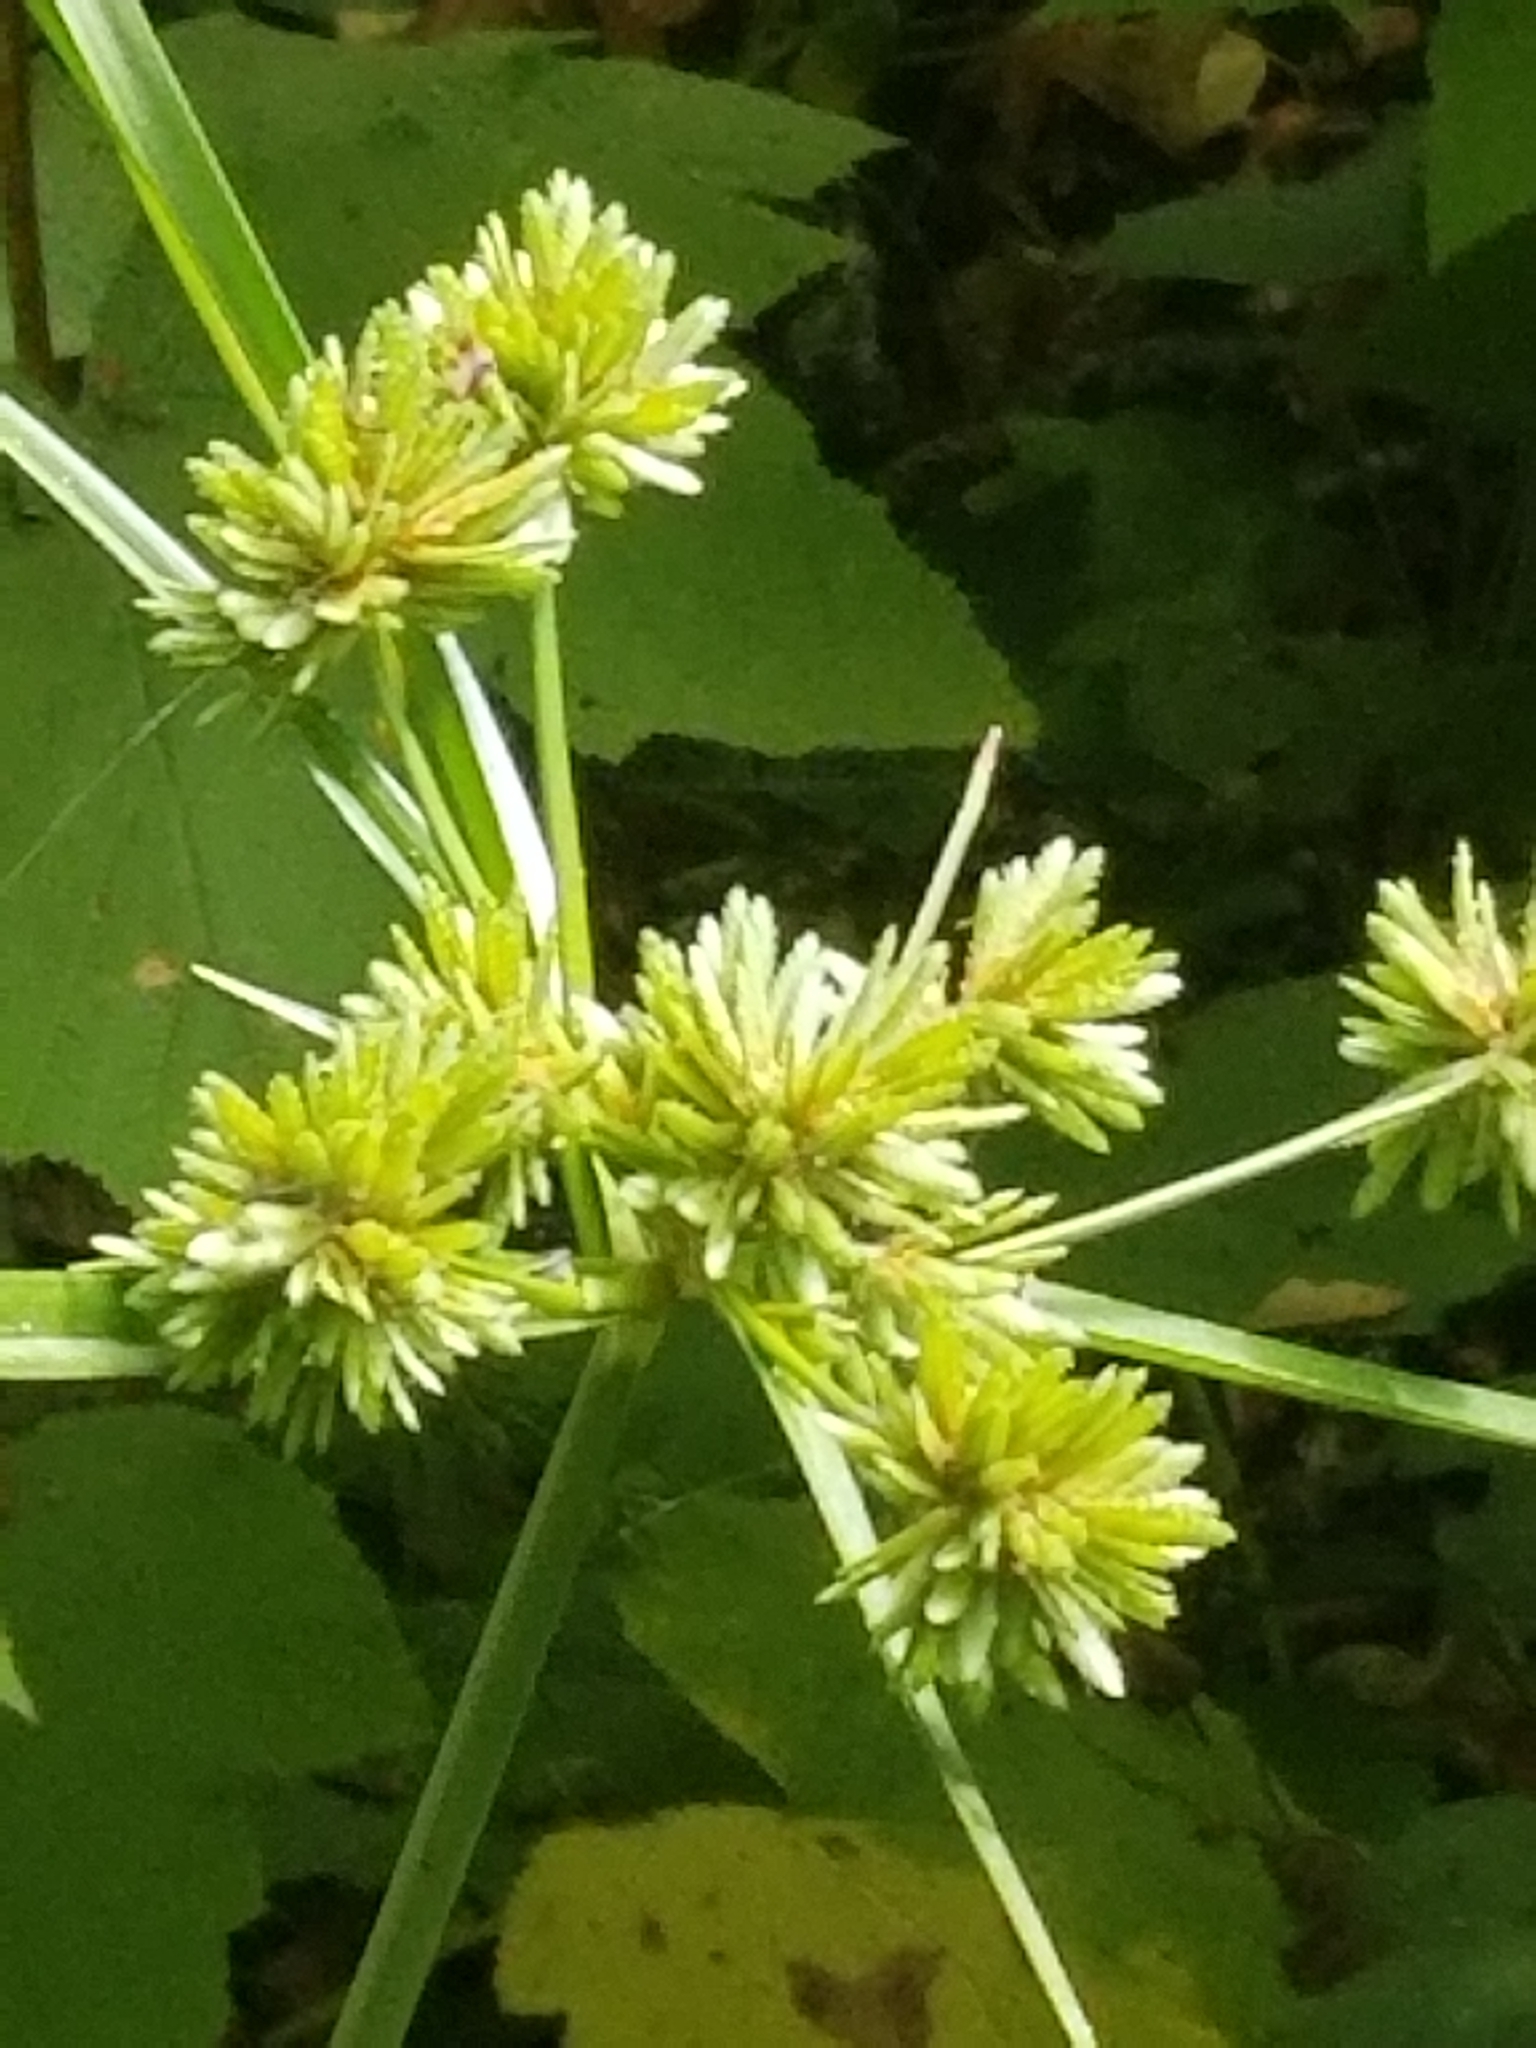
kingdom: Plantae
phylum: Tracheophyta
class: Liliopsida
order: Poales
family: Cyperaceae
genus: Cyperus
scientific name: Cyperus eragrostis
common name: Tall flatsedge
